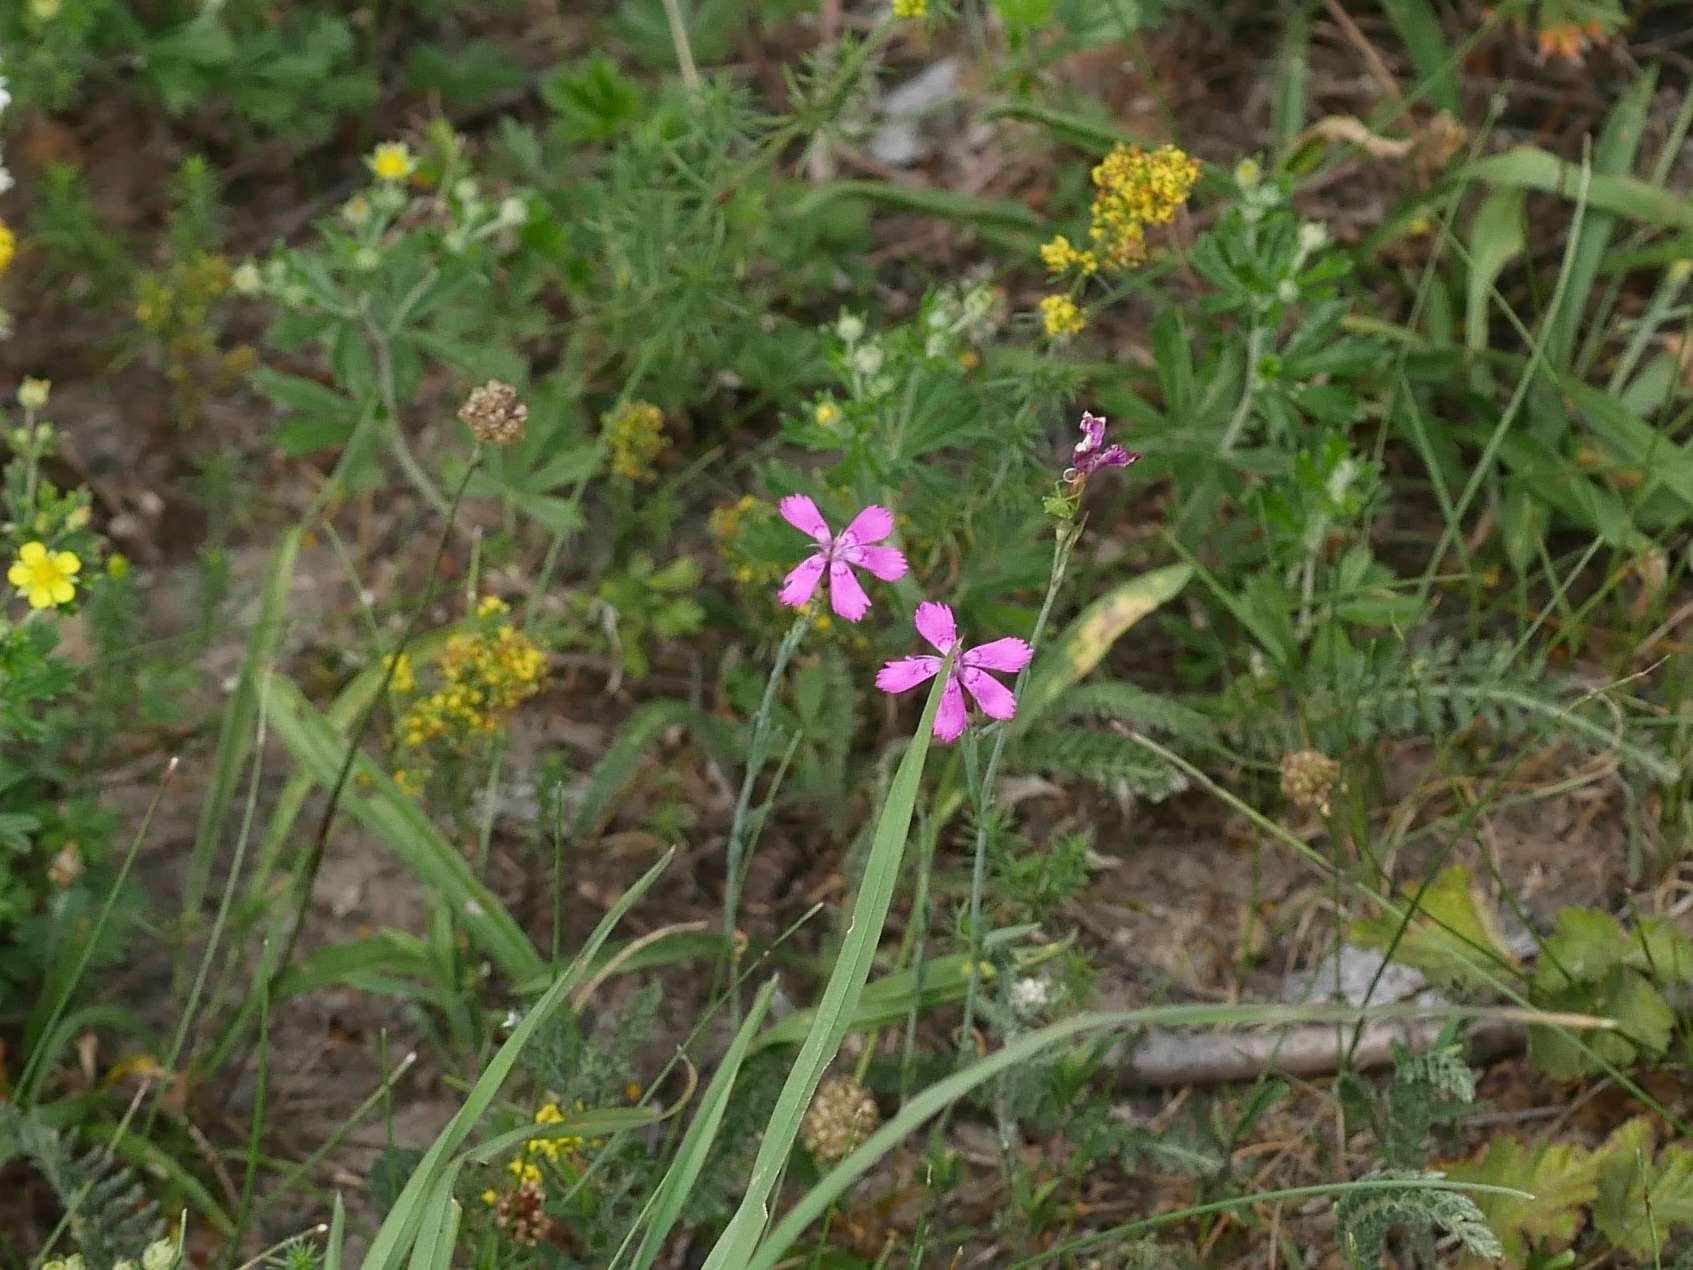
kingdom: Plantae
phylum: Tracheophyta
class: Magnoliopsida
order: Caryophyllales
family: Caryophyllaceae
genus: Dianthus
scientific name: Dianthus deltoides
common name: Maiden pink
